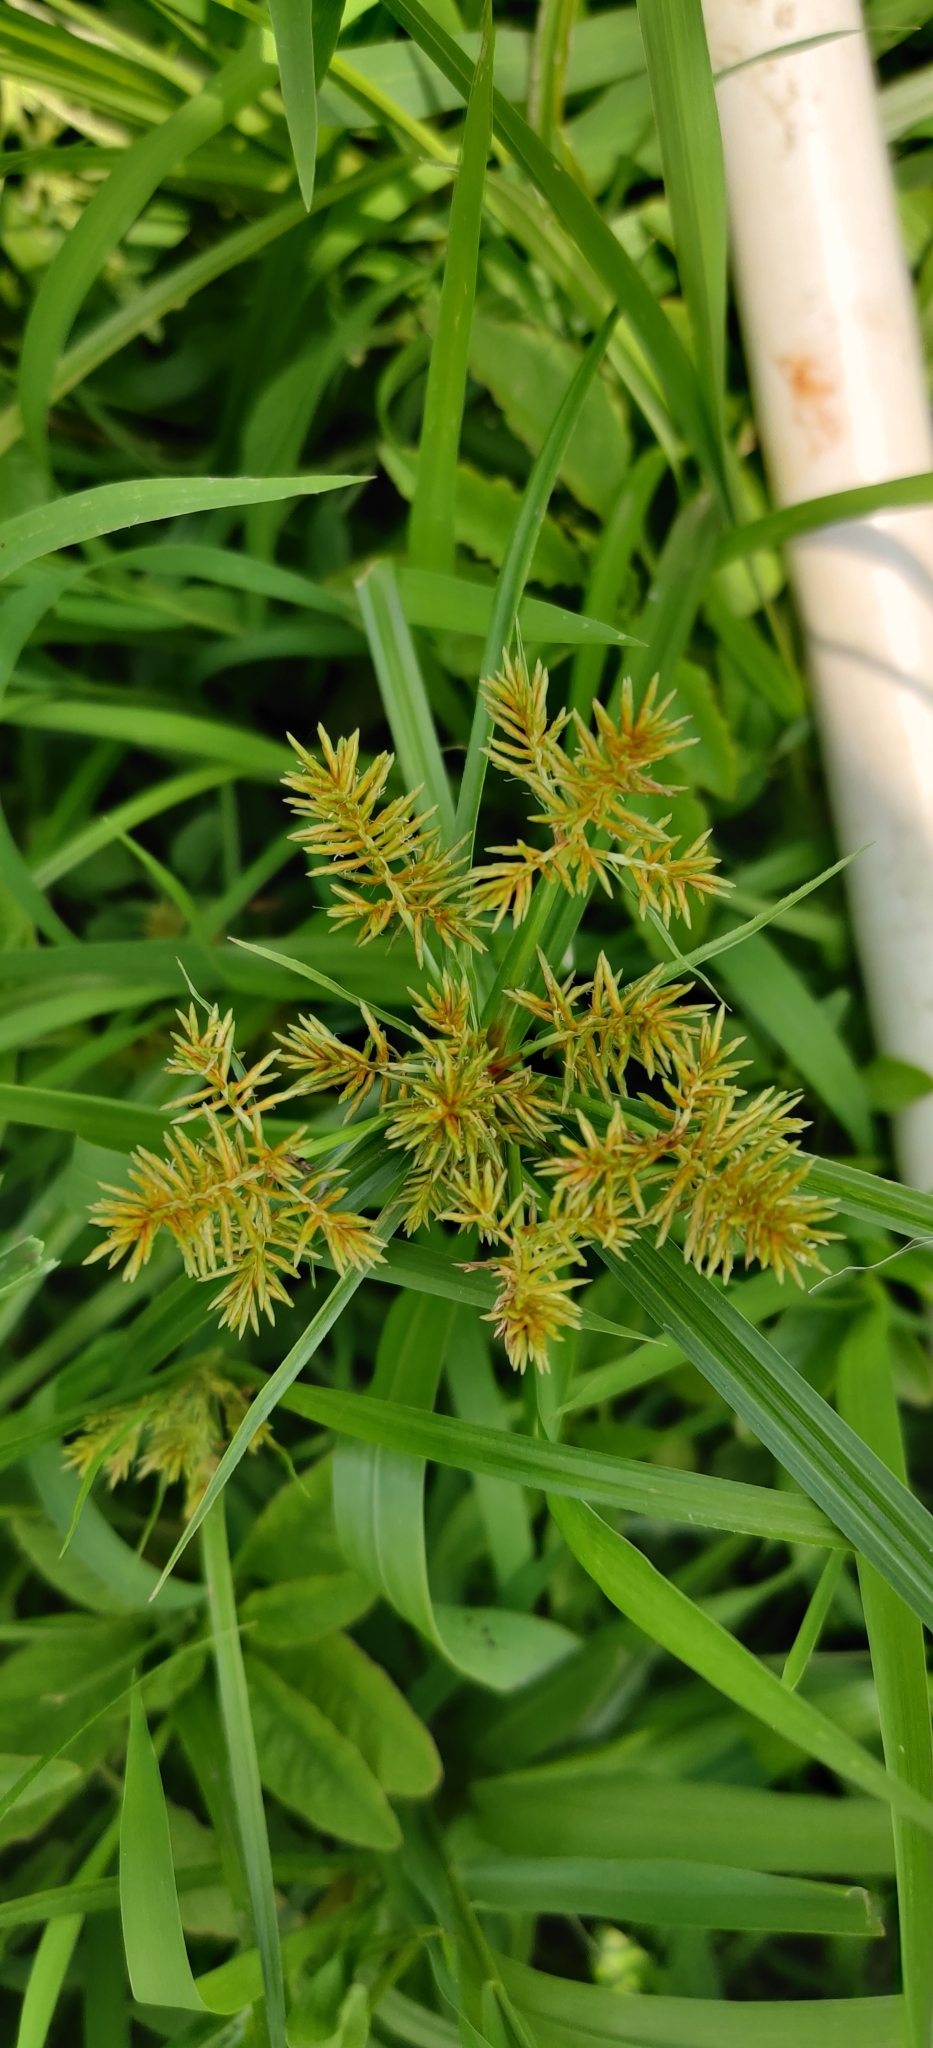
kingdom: Plantae
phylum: Tracheophyta
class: Liliopsida
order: Poales
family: Cyperaceae
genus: Cyperus
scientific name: Cyperus esculentus
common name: Yellow nutsedge
